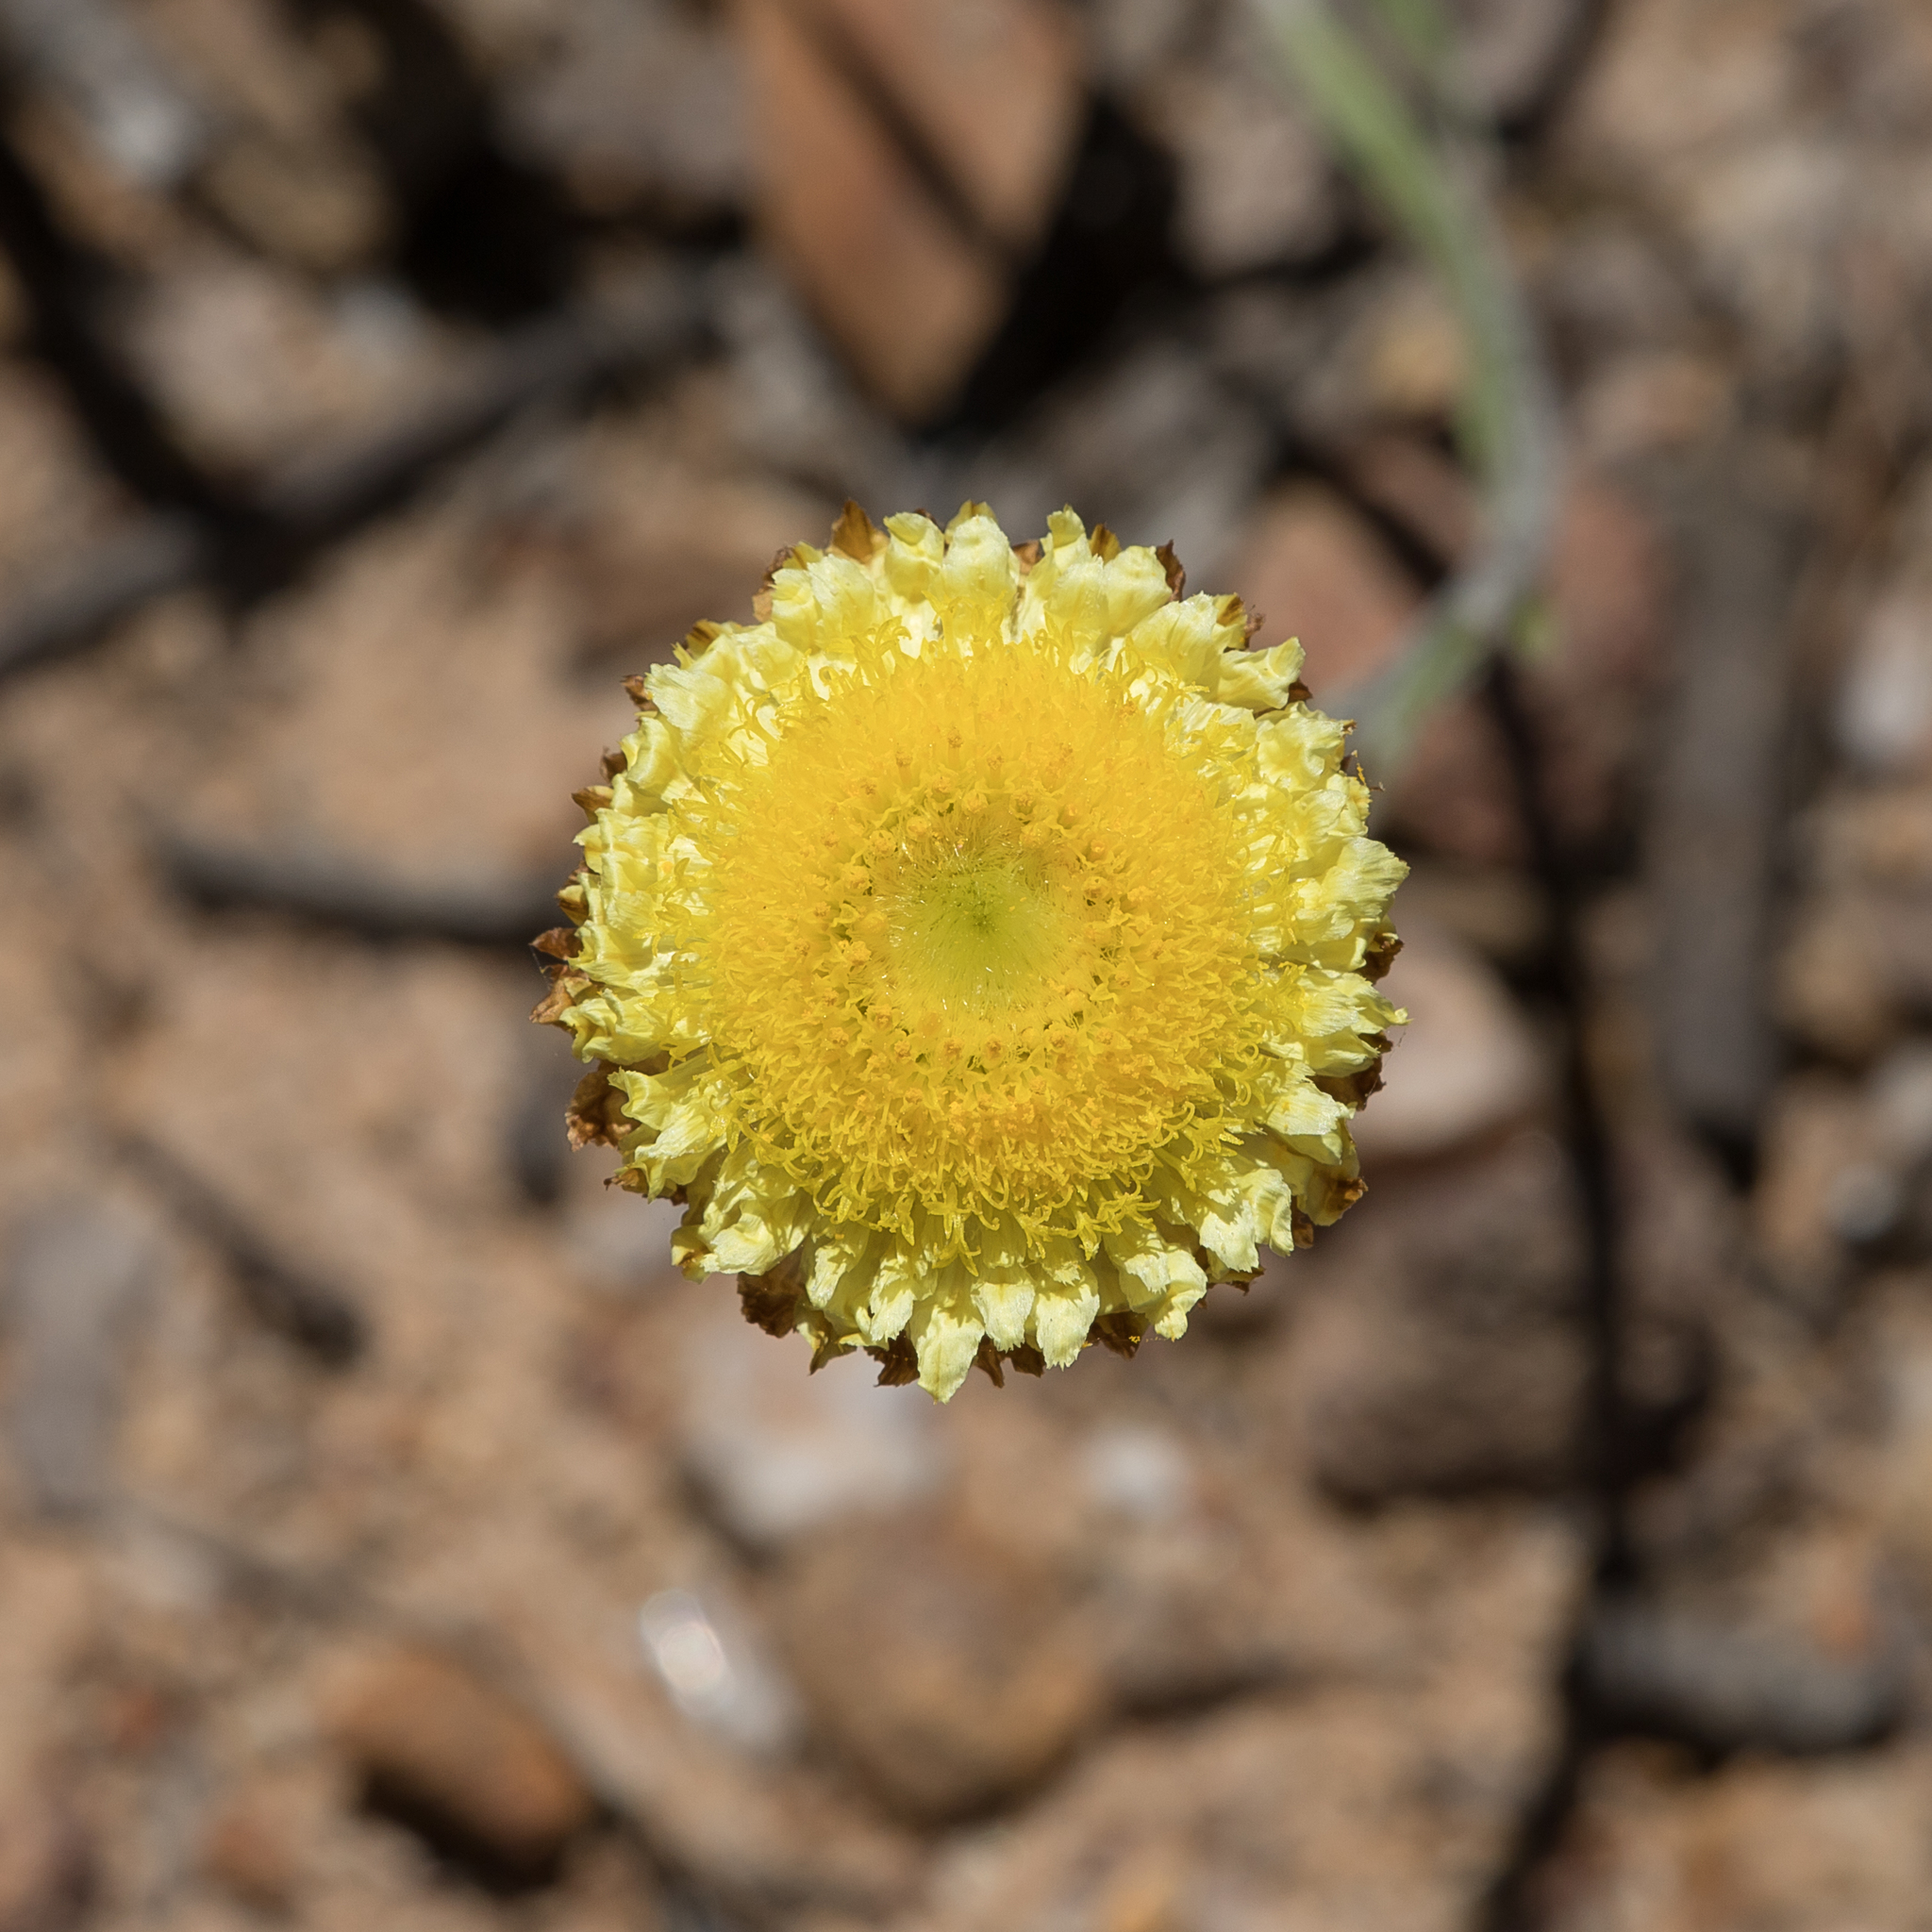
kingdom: Plantae
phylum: Tracheophyta
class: Magnoliopsida
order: Asterales
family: Asteraceae
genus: Coronidium
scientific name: Coronidium scorpioides
